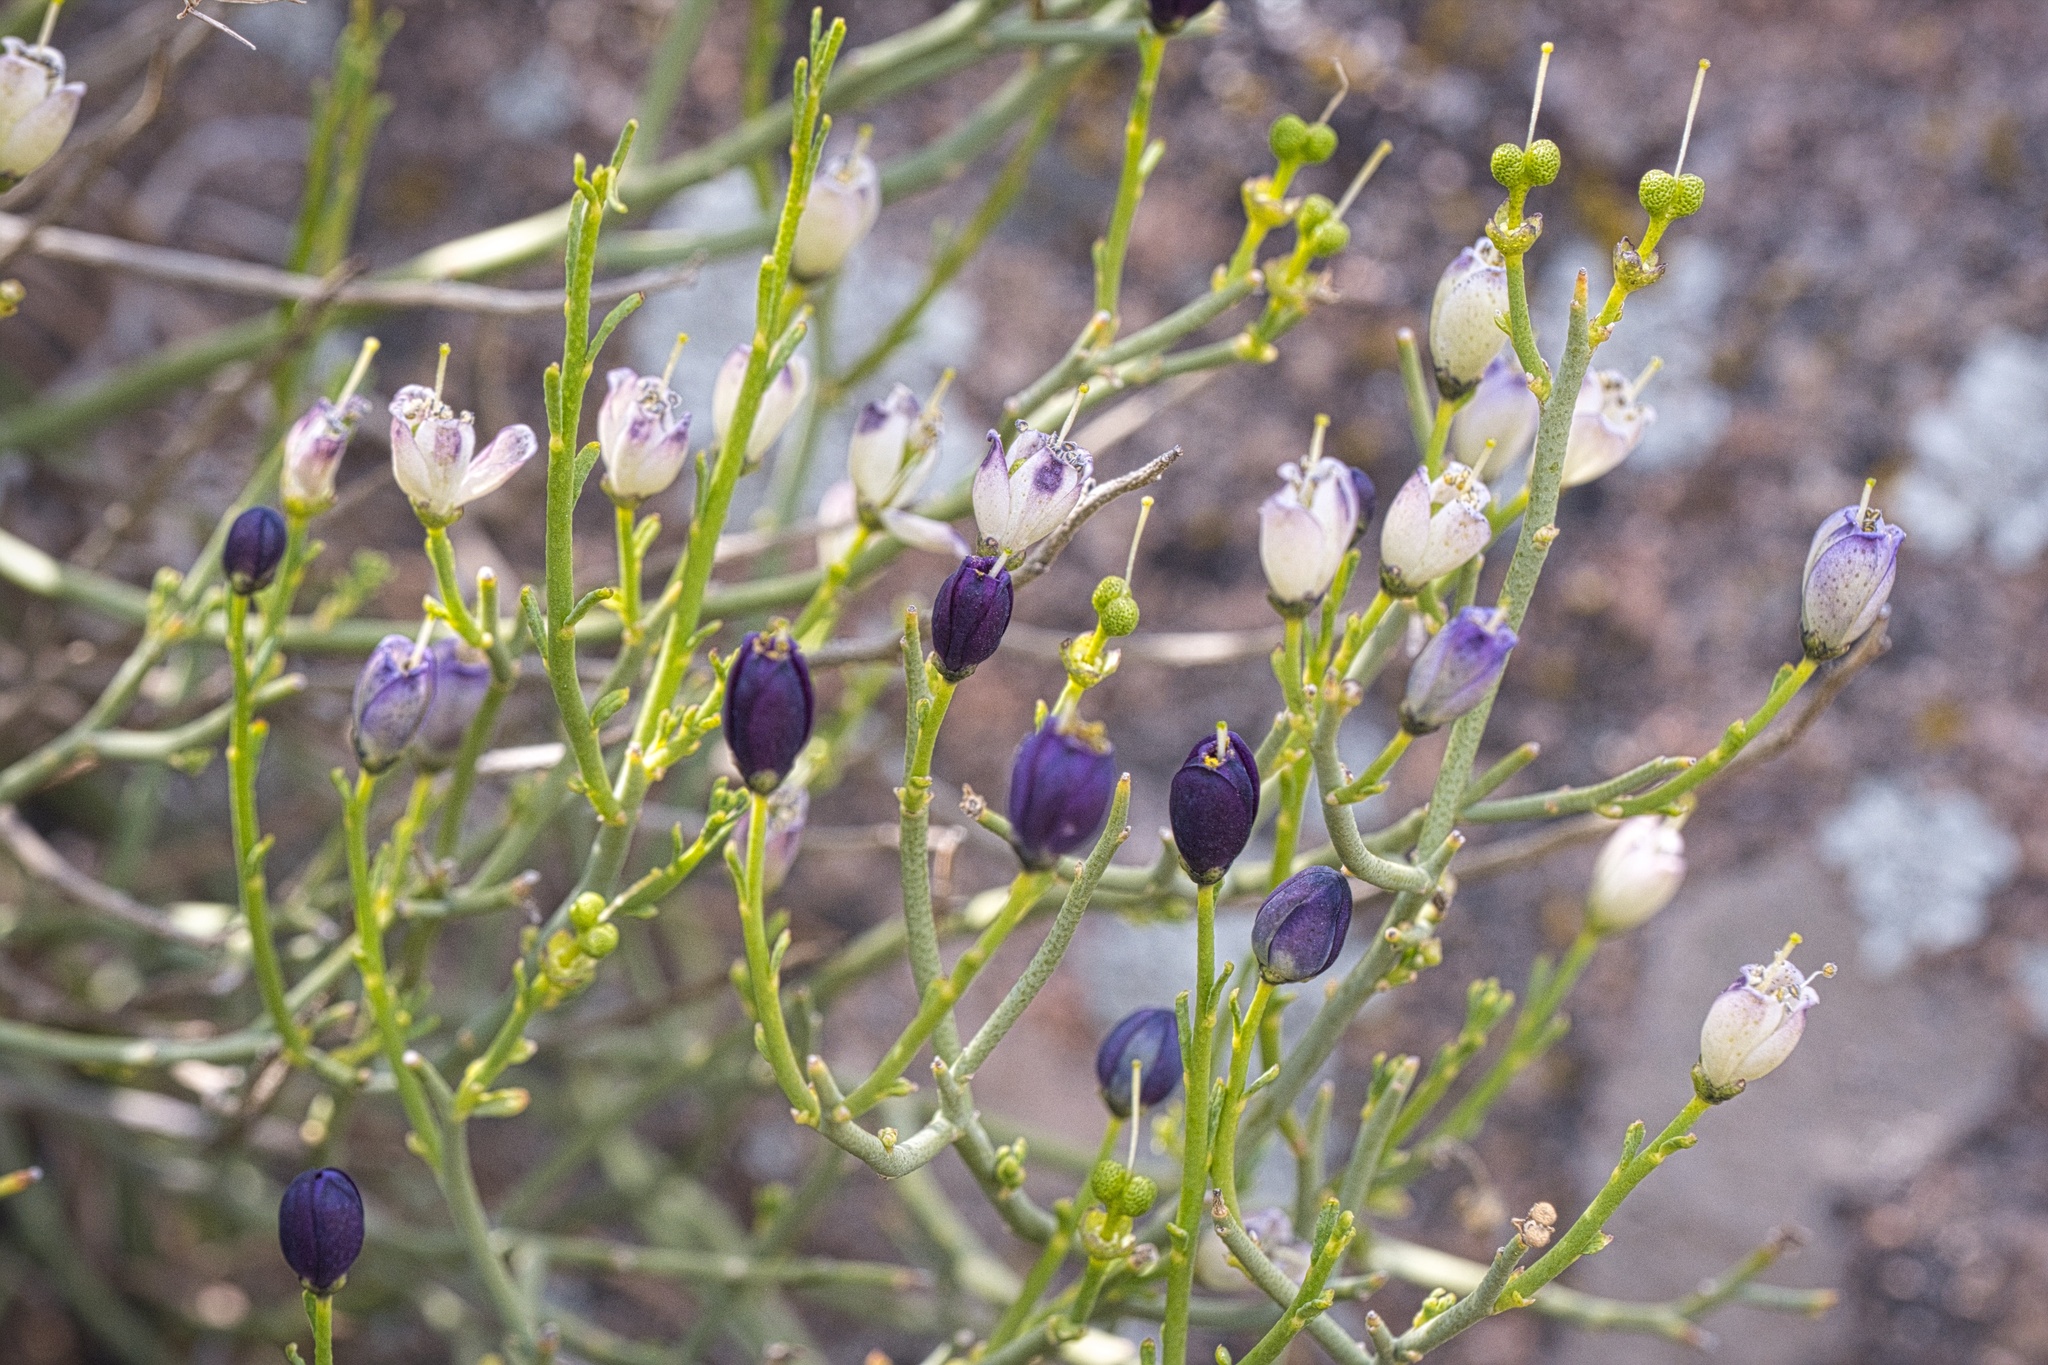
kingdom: Plantae
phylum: Tracheophyta
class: Magnoliopsida
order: Sapindales
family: Rutaceae
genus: Thamnosma
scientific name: Thamnosma montana
